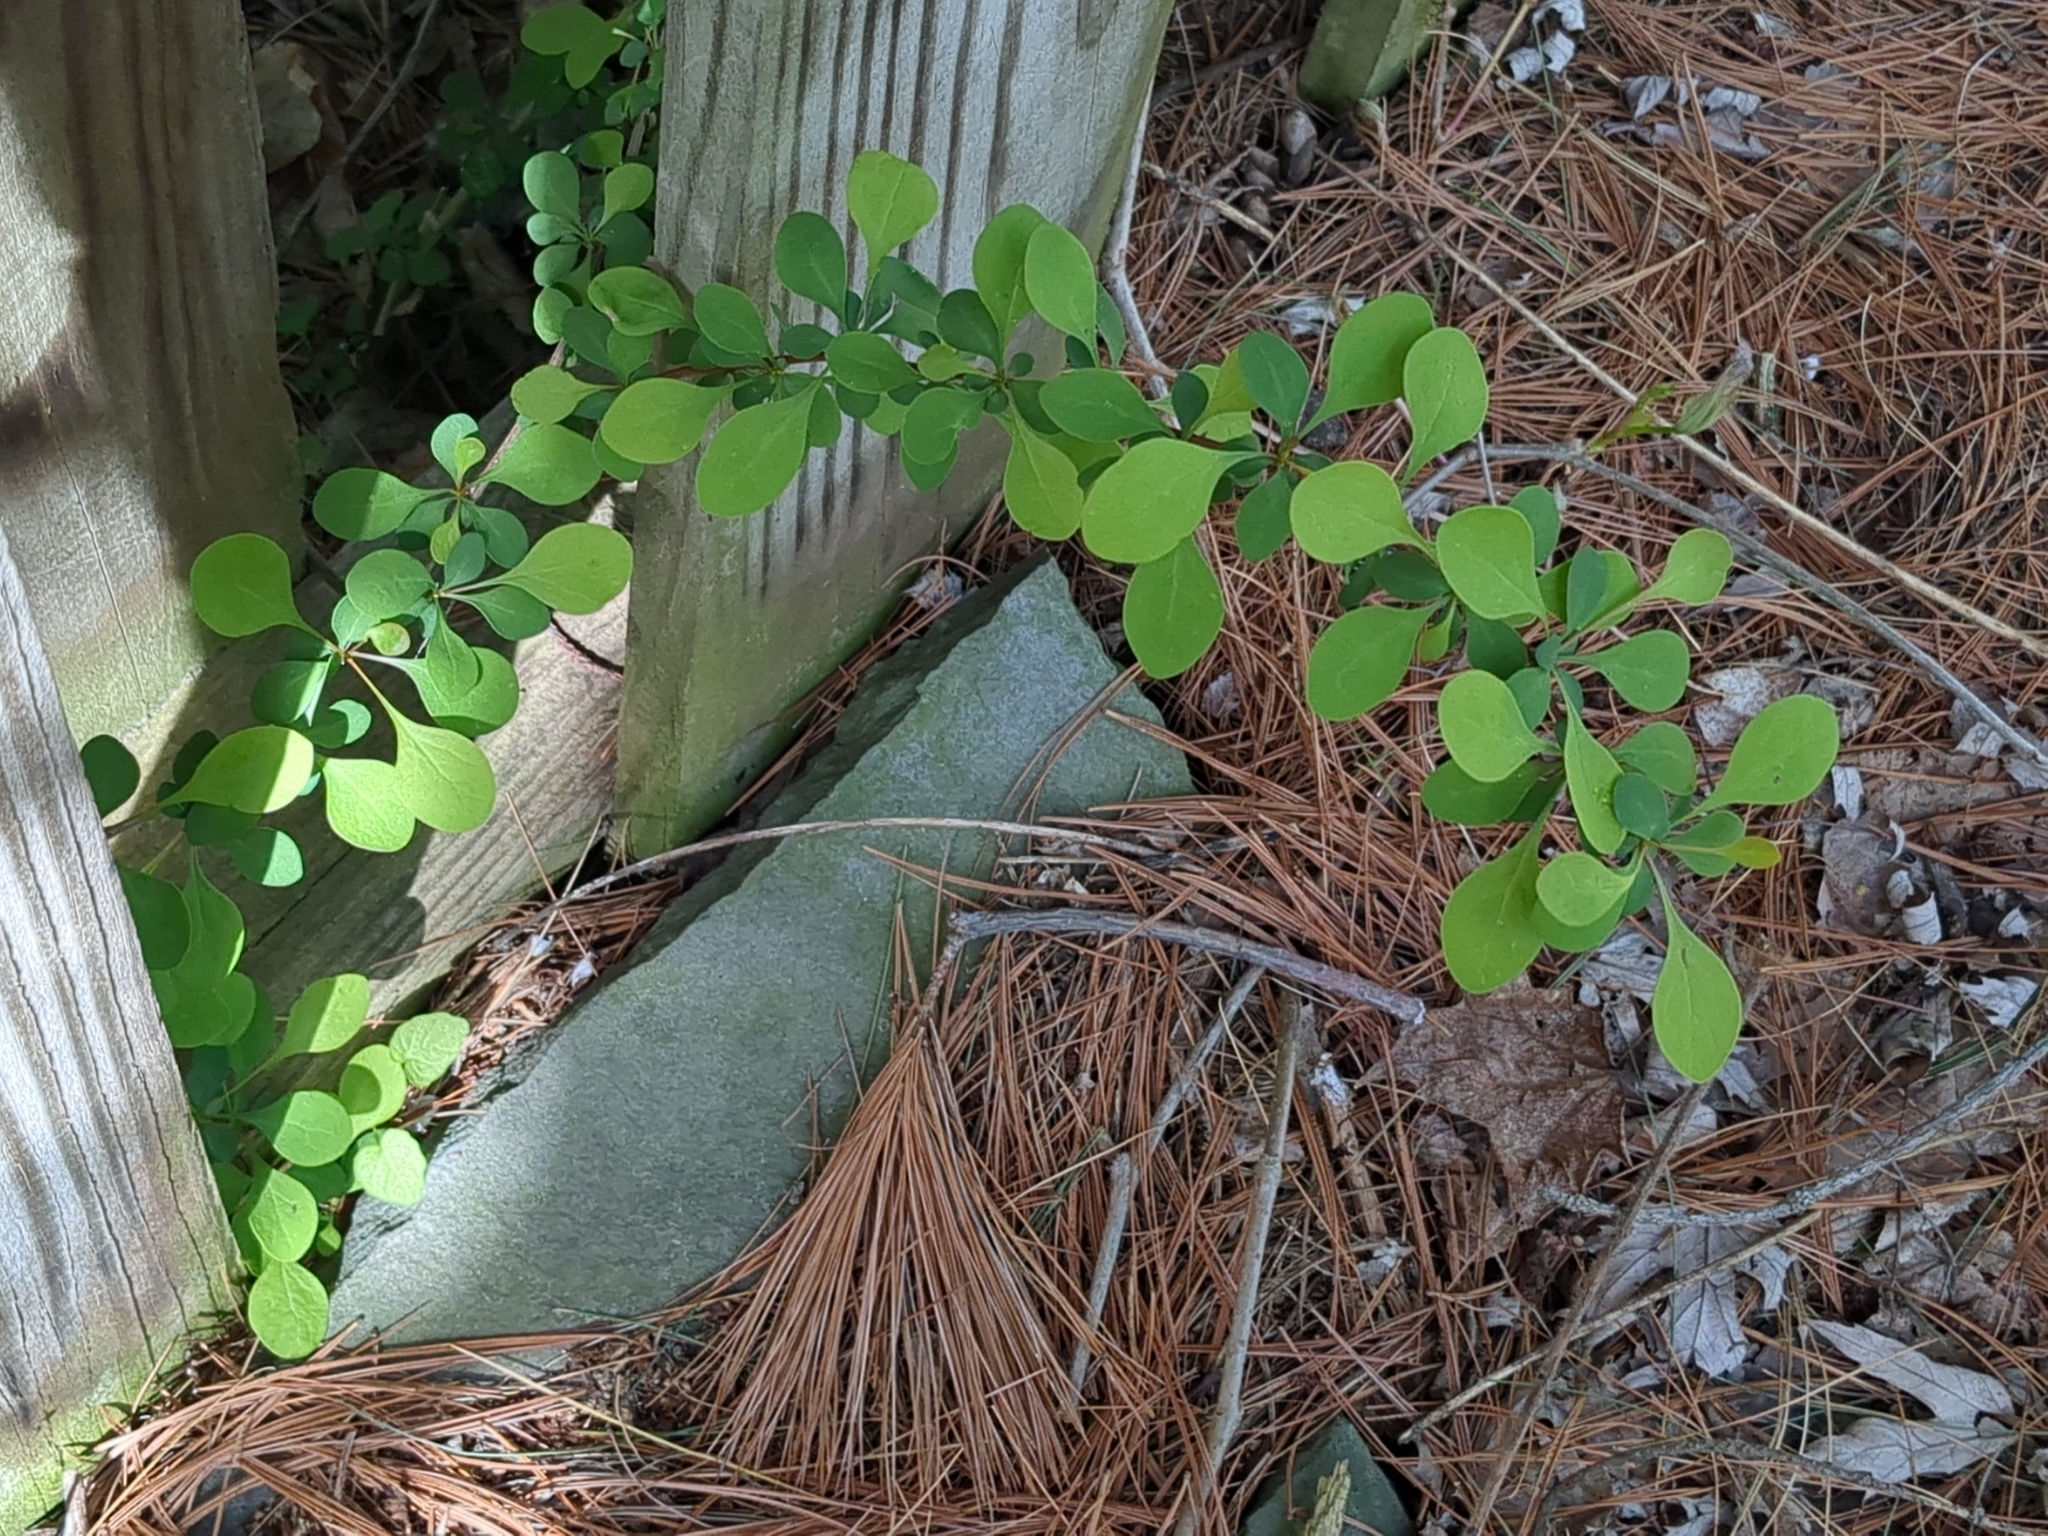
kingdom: Plantae
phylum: Tracheophyta
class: Magnoliopsida
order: Ranunculales
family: Berberidaceae
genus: Berberis
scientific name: Berberis thunbergii
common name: Japanese barberry
